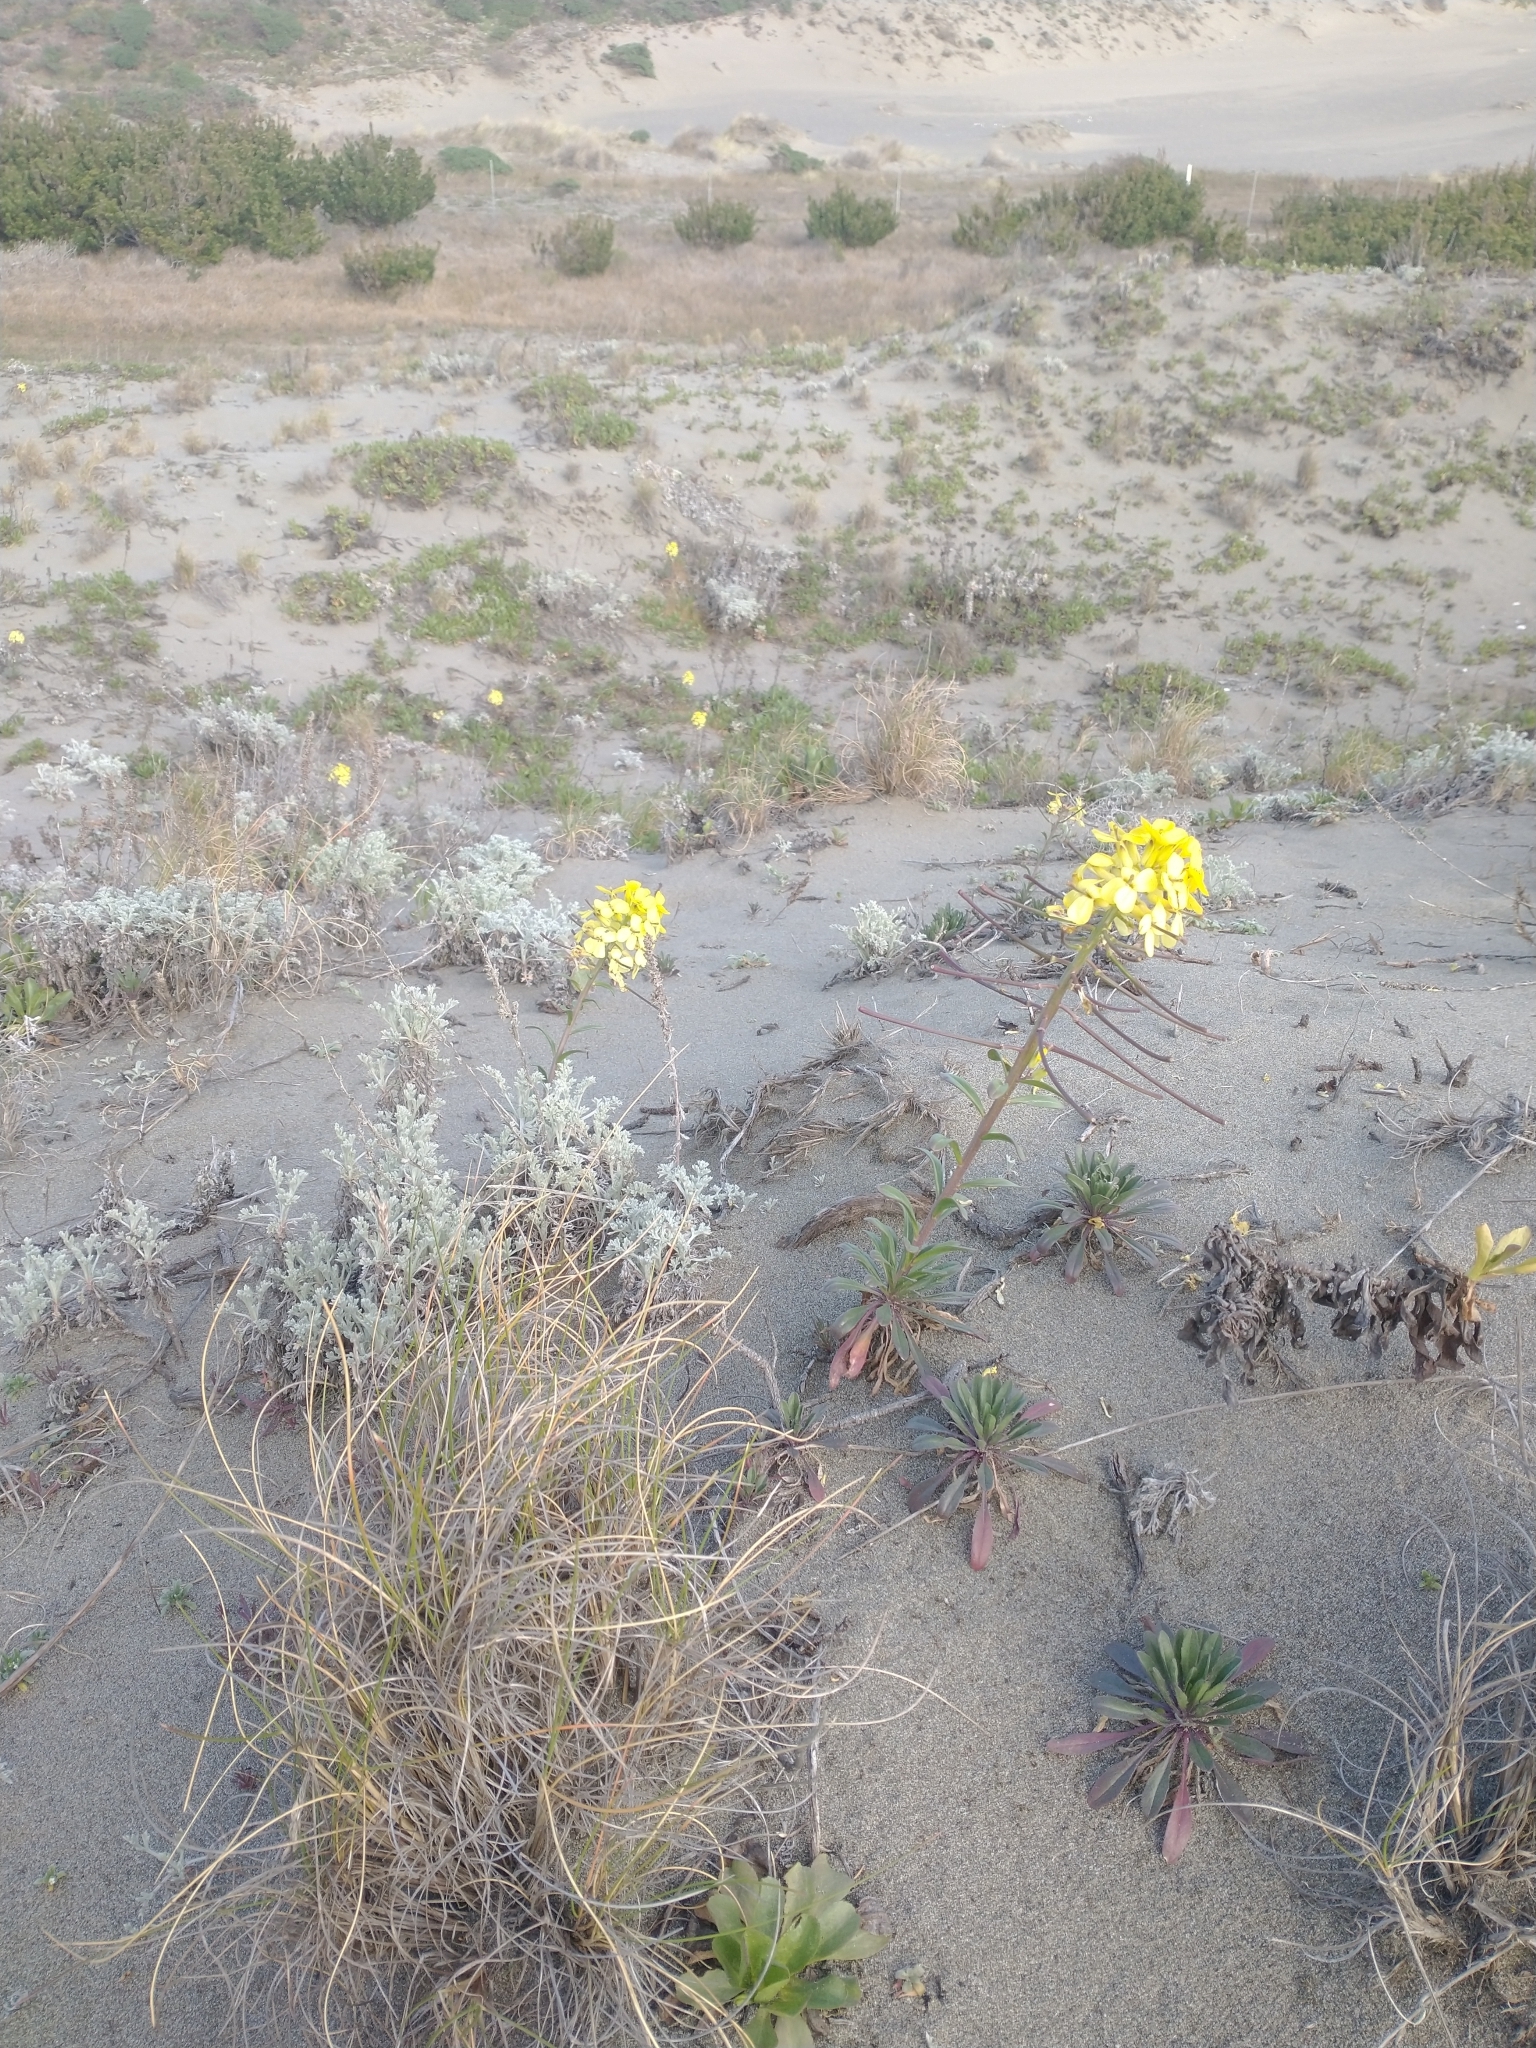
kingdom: Plantae
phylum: Tracheophyta
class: Magnoliopsida
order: Brassicales
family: Brassicaceae
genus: Erysimum
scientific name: Erysimum menziesii
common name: Menzies's wallflower
